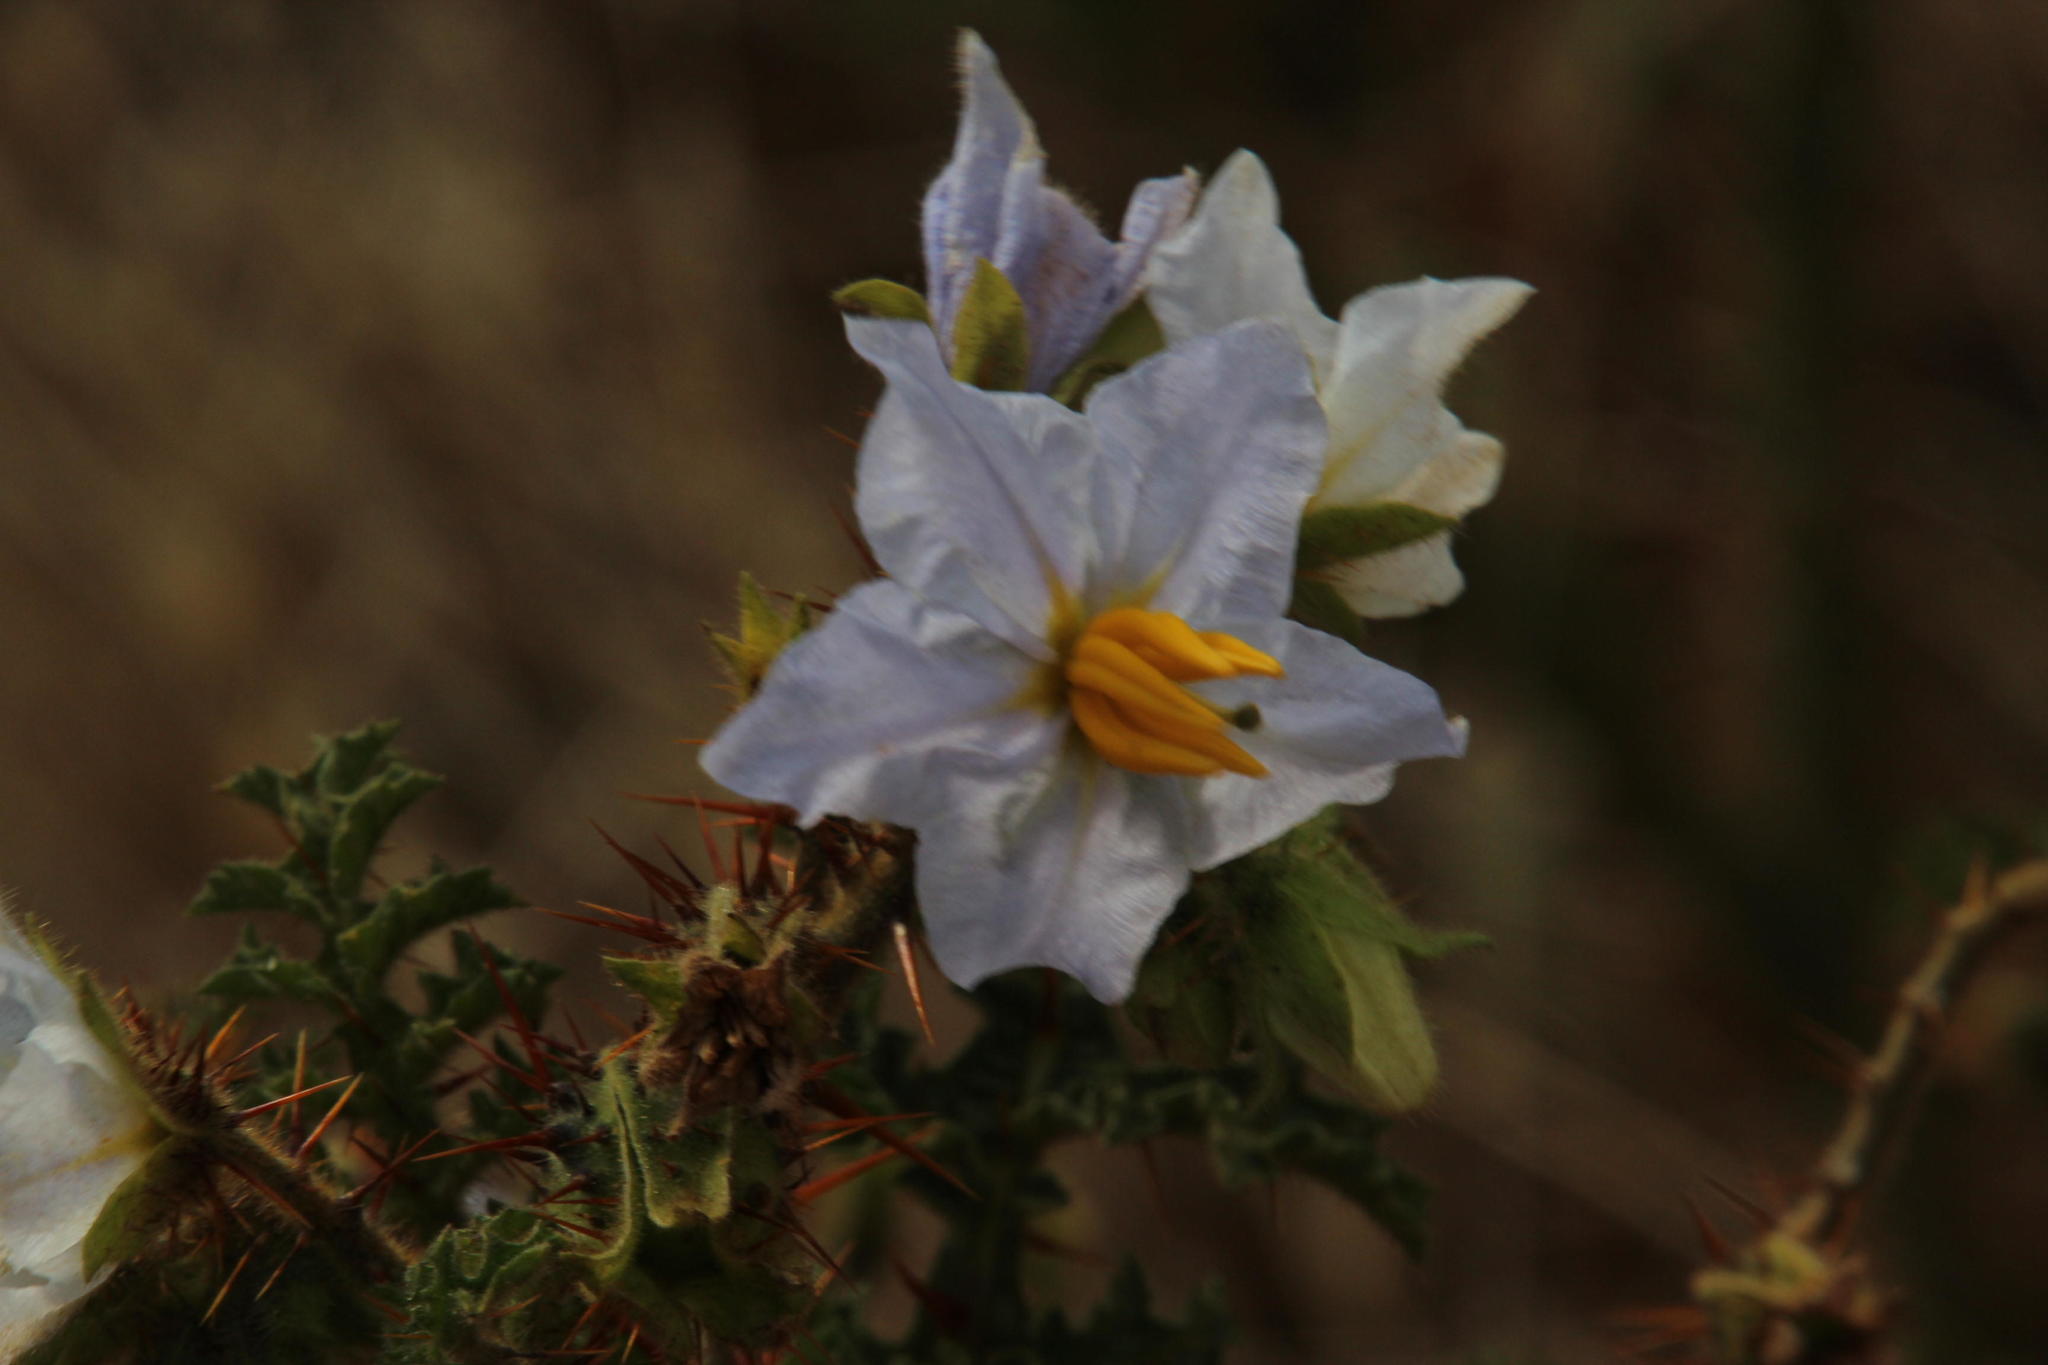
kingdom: Plantae
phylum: Tracheophyta
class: Magnoliopsida
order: Solanales
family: Solanaceae
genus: Solanum
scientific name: Solanum sisymbriifolium
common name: Red buffalo-bur
